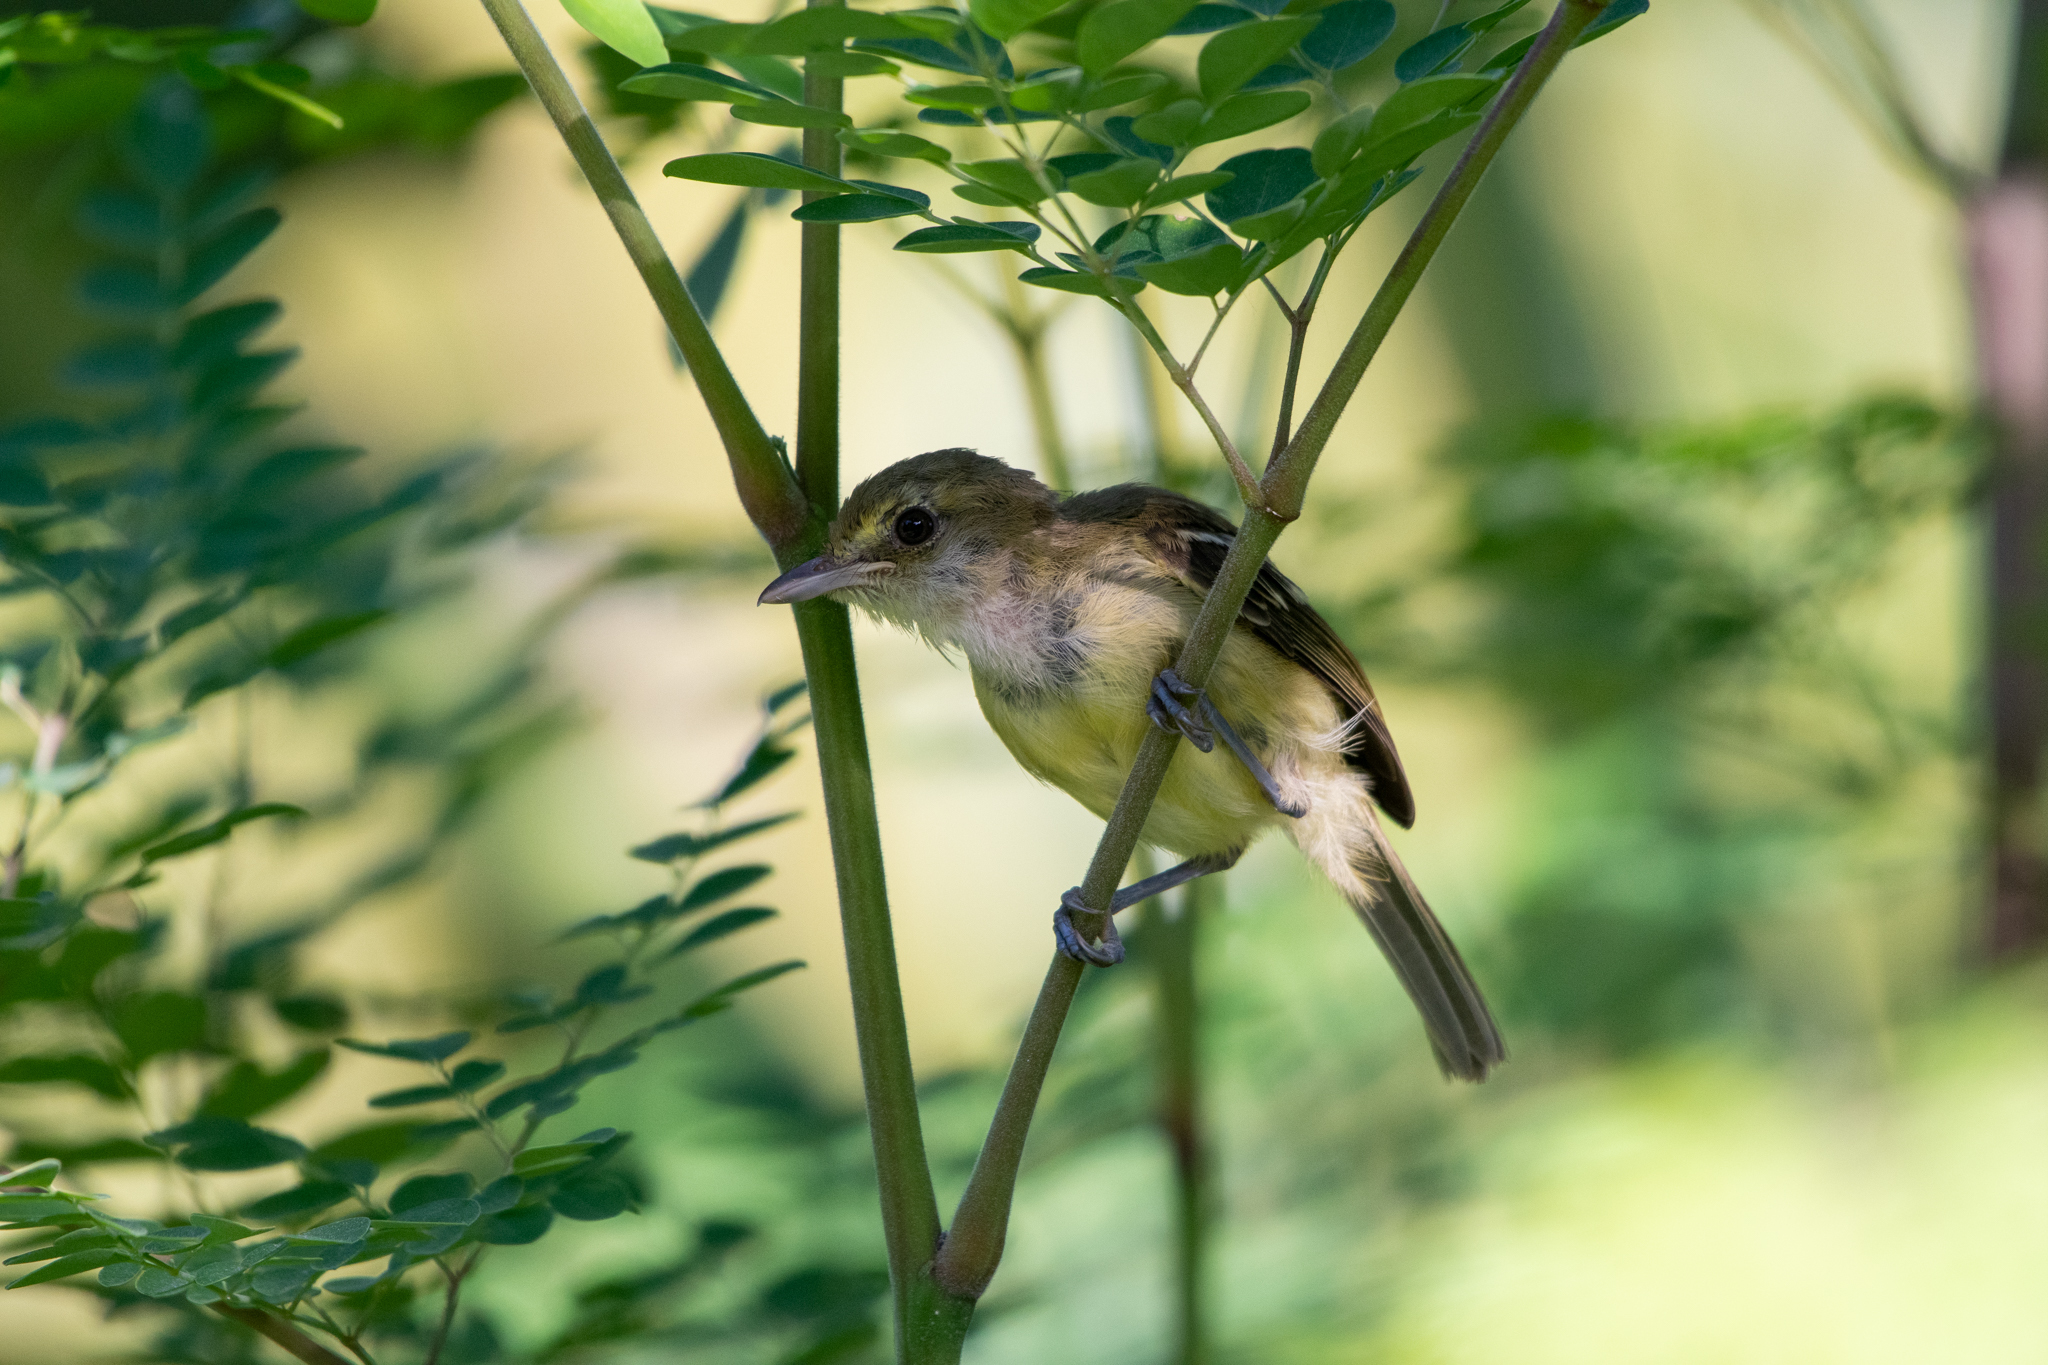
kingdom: Animalia
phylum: Chordata
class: Aves
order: Passeriformes
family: Vireonidae
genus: Vireo
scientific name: Vireo pallens
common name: Mangrove vireo
